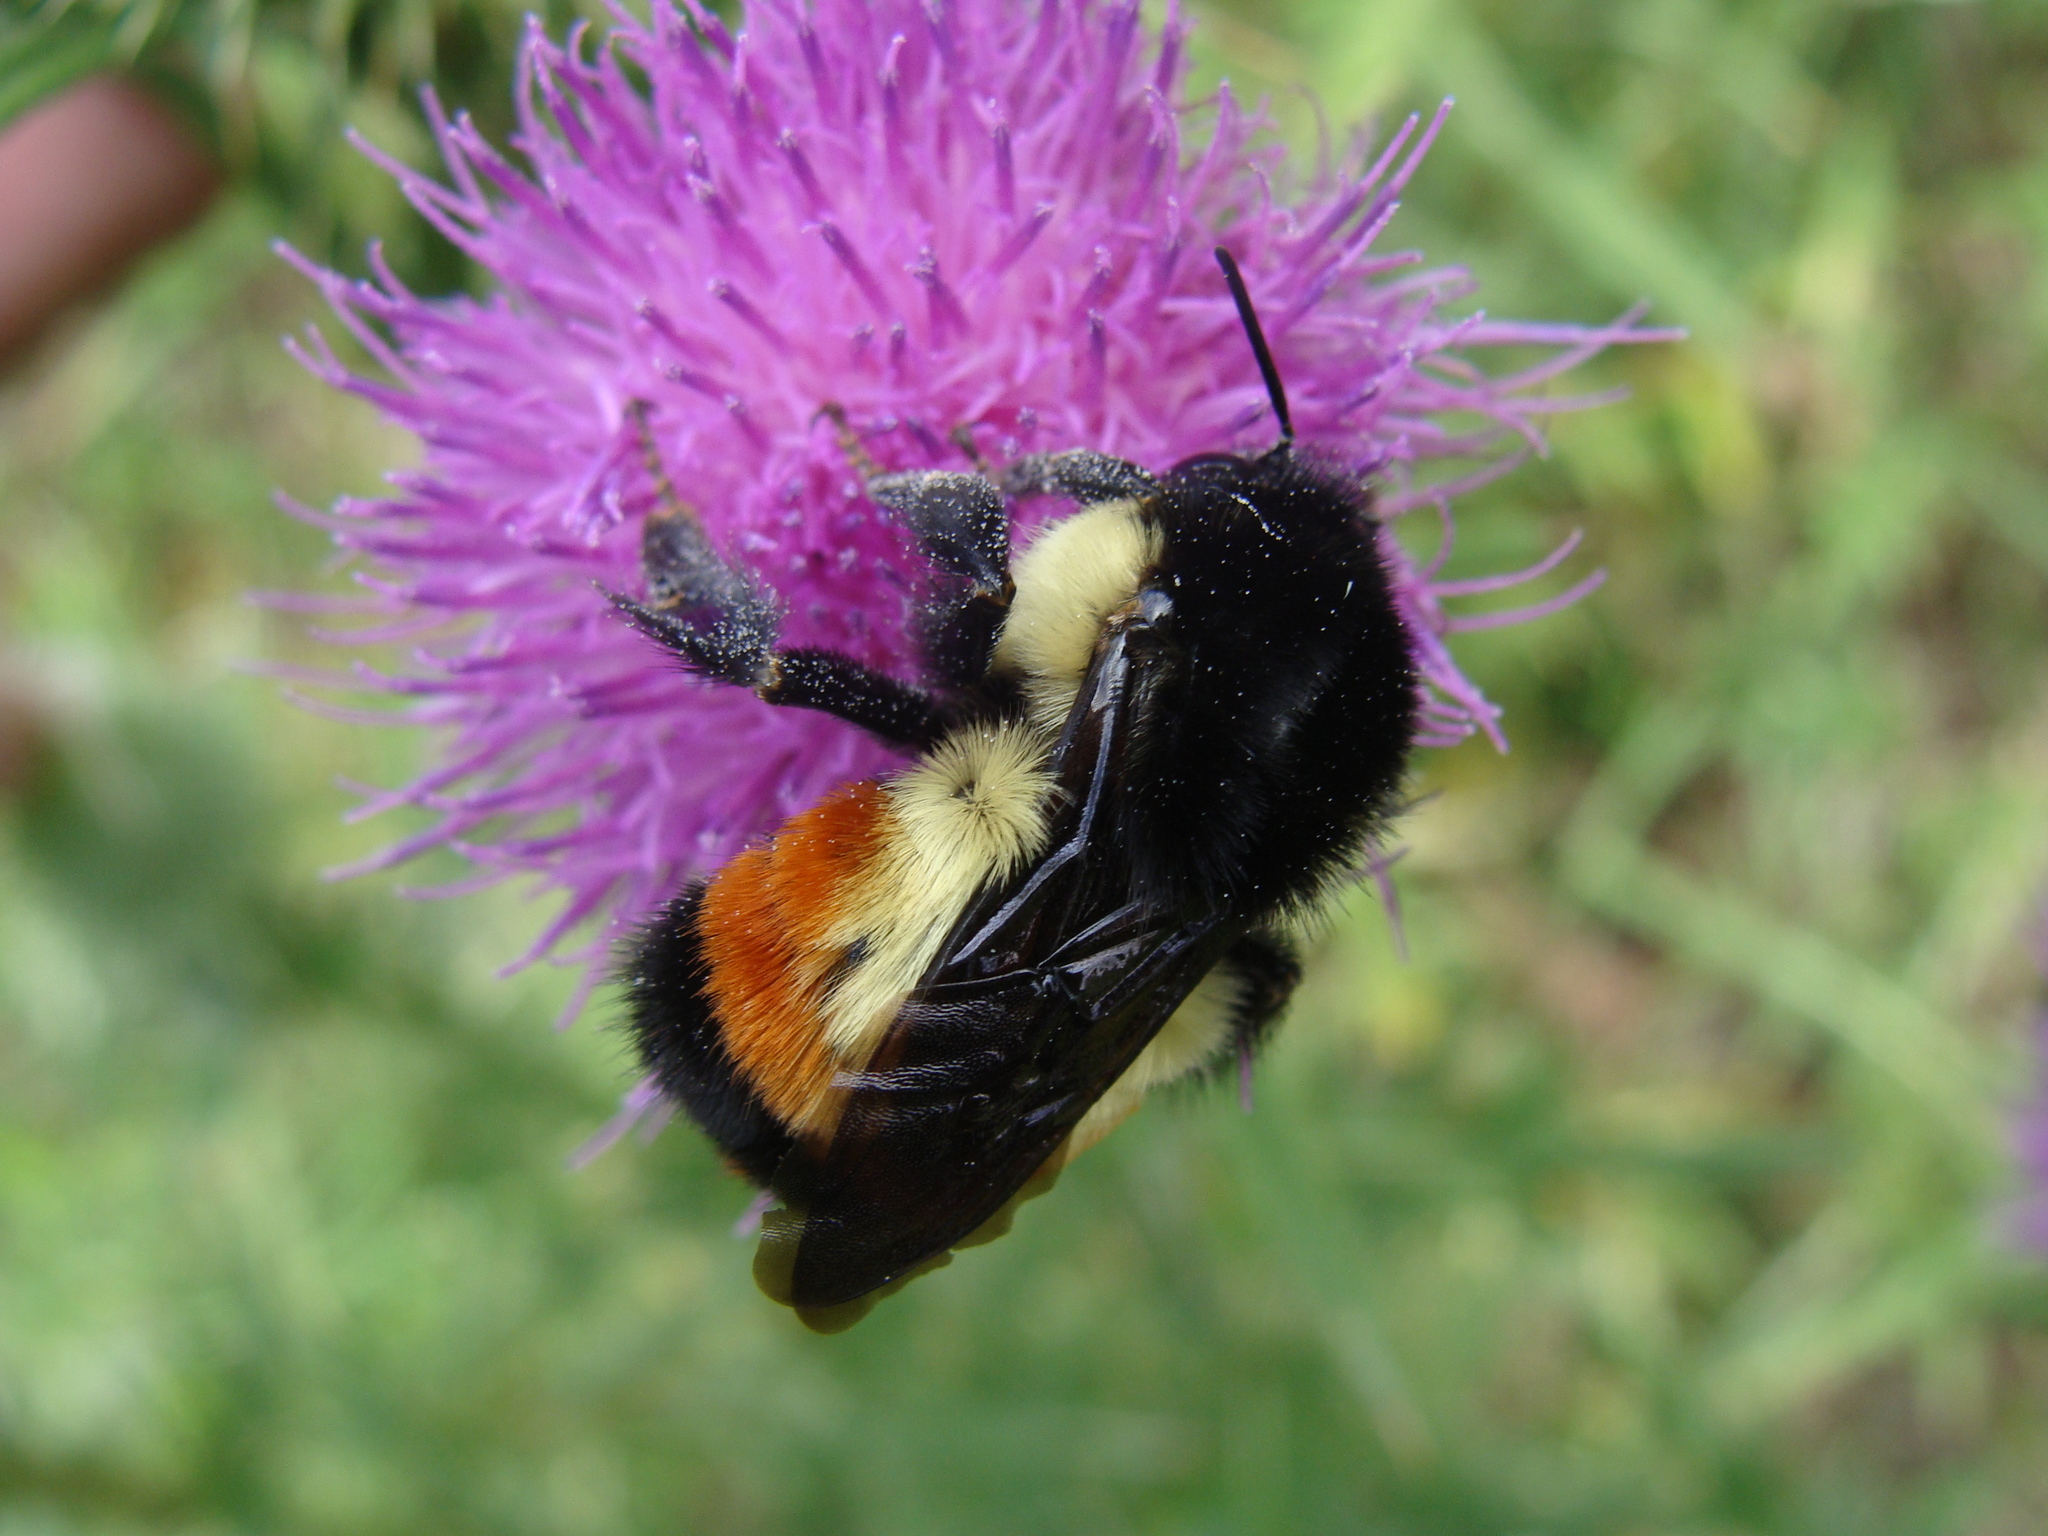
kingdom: Animalia
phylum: Arthropoda
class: Insecta
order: Hymenoptera
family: Apidae
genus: Bombus
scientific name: Bombus ephippiatus
